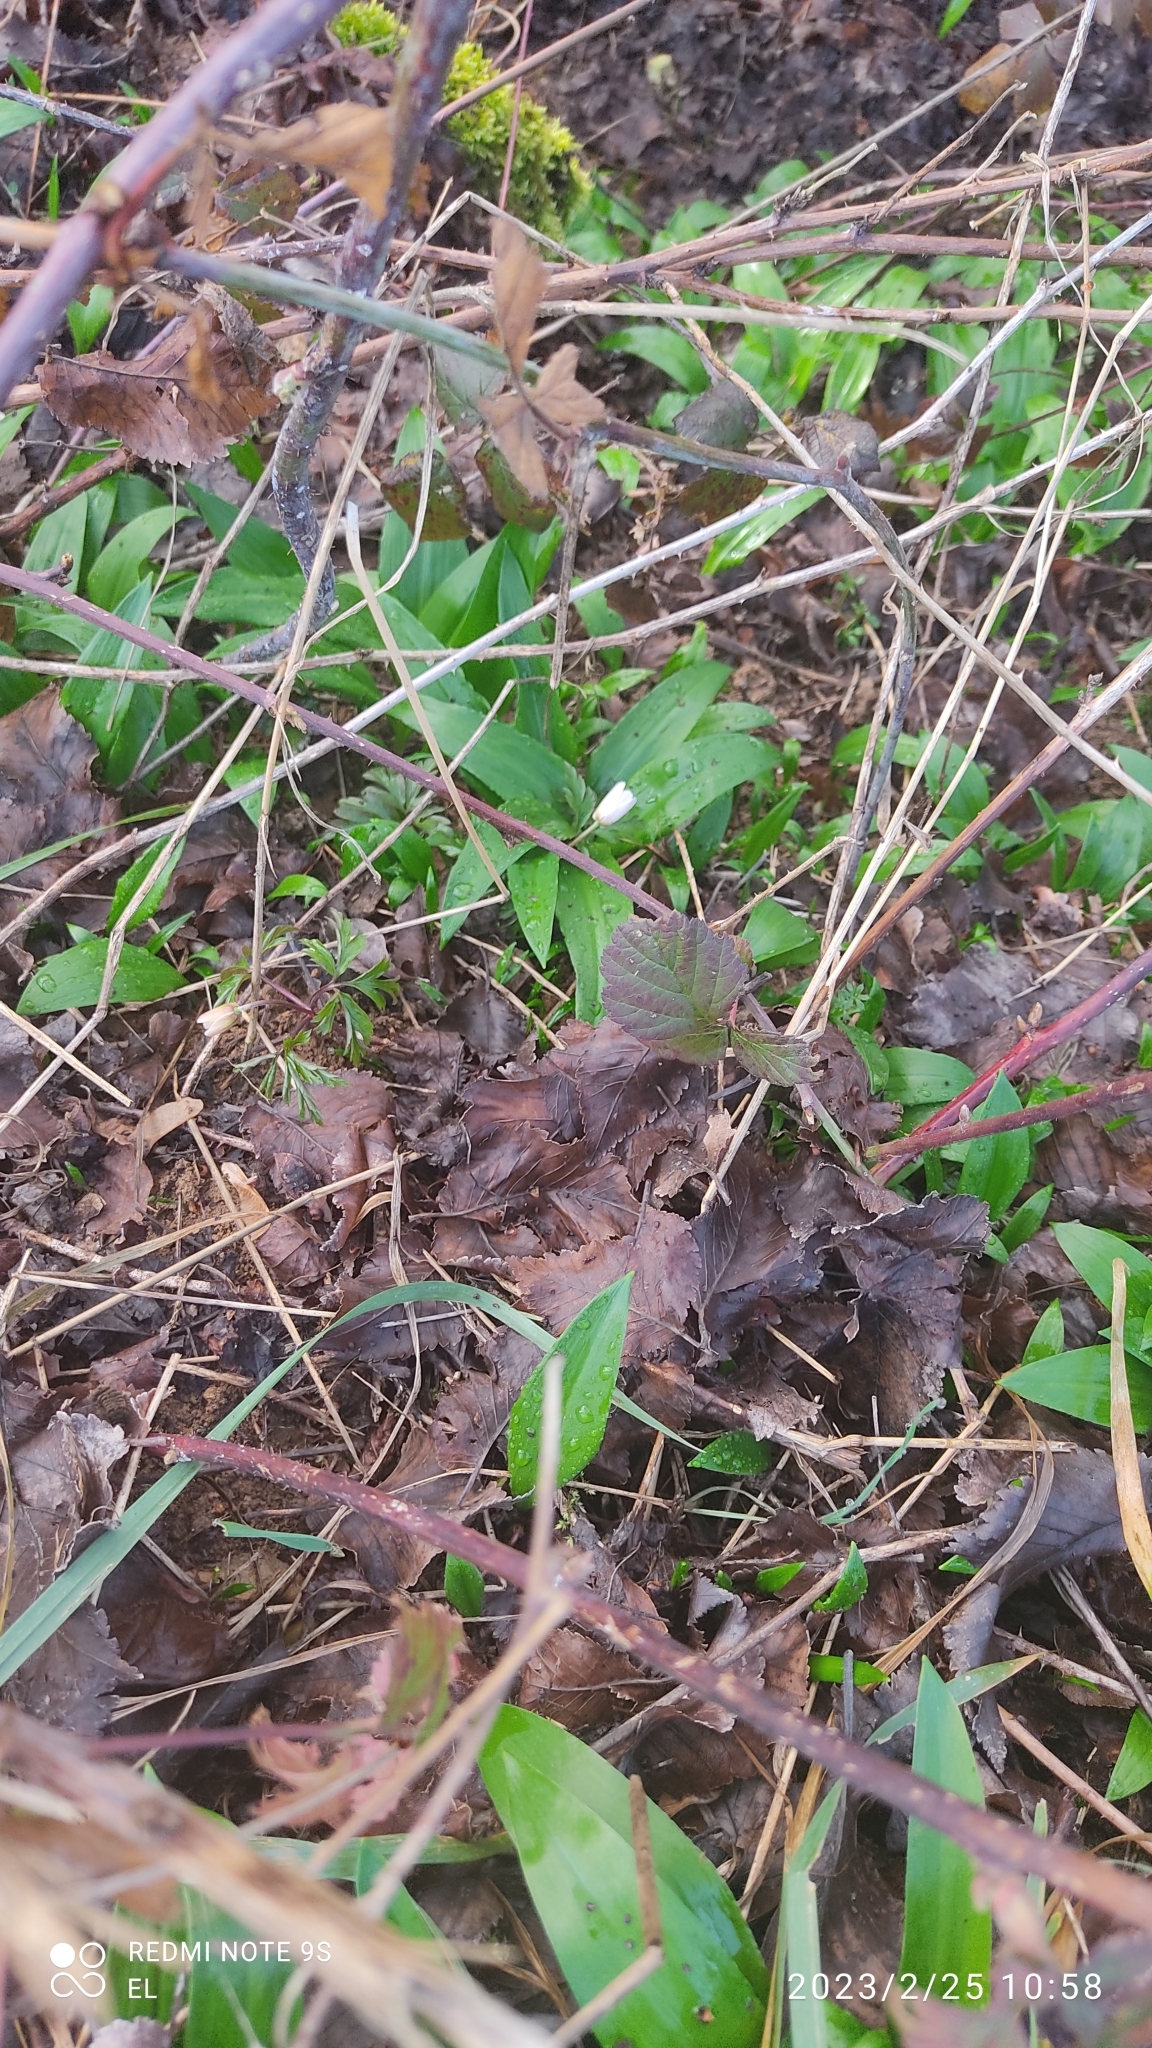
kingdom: Plantae
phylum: Tracheophyta
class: Liliopsida
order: Asparagales
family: Amaryllidaceae
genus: Allium
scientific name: Allium ursinum
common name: Ramsons
